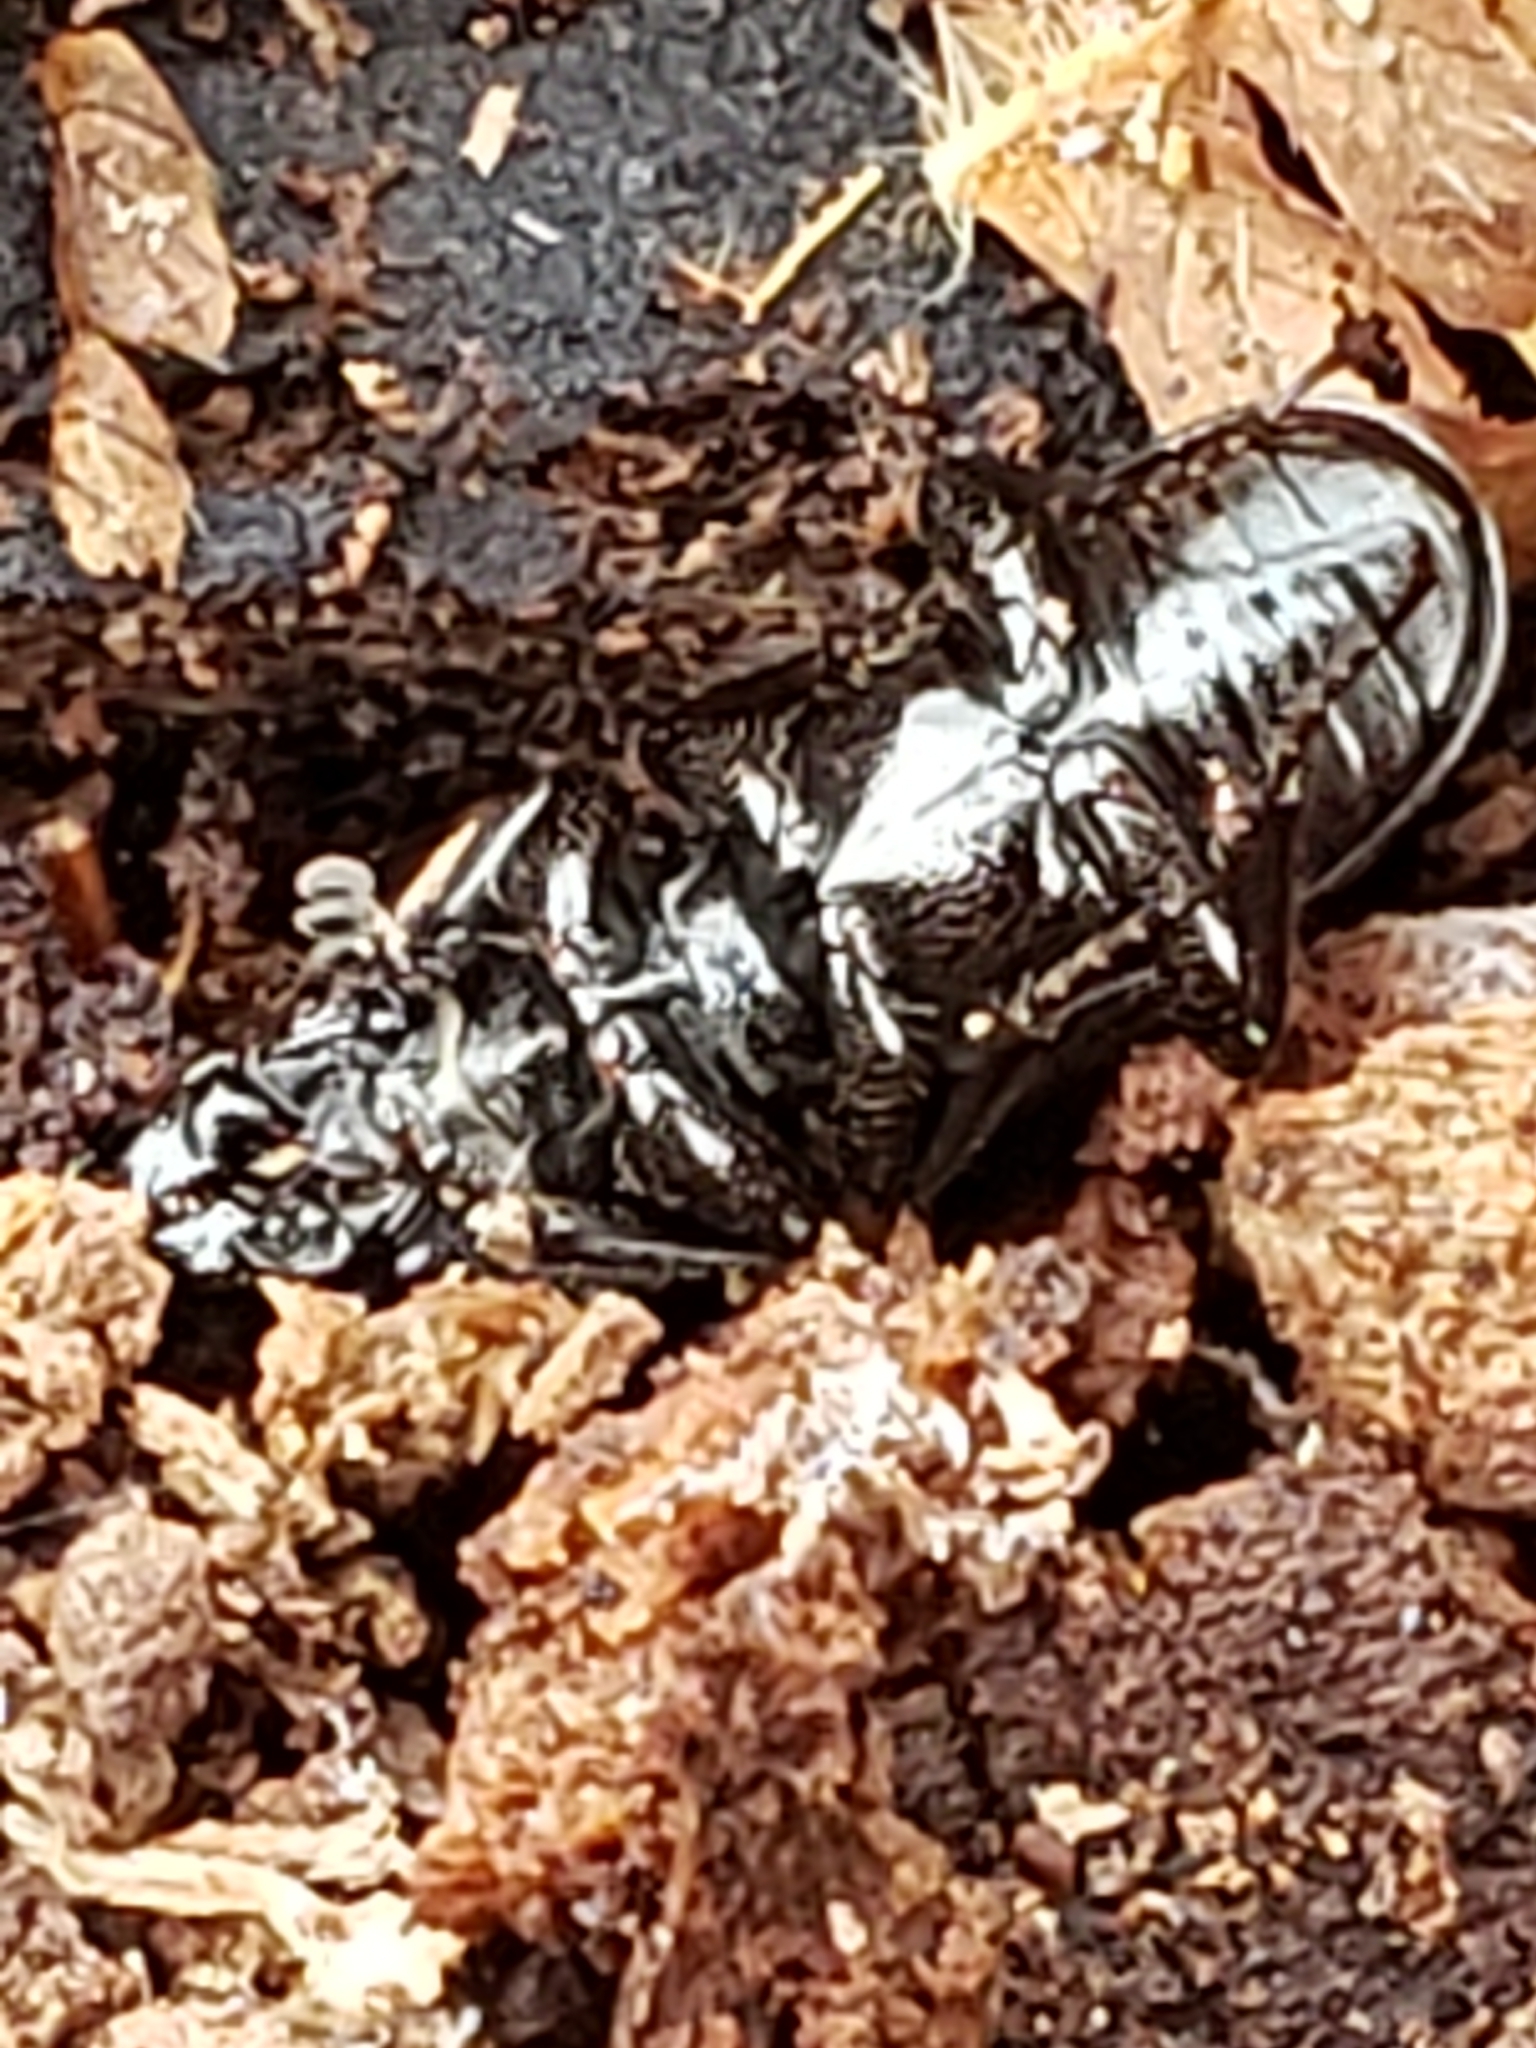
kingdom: Animalia
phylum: Arthropoda
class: Insecta
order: Coleoptera
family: Lucanidae
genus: Platycerus
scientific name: Platycerus quercus
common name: Oak stag beetle
